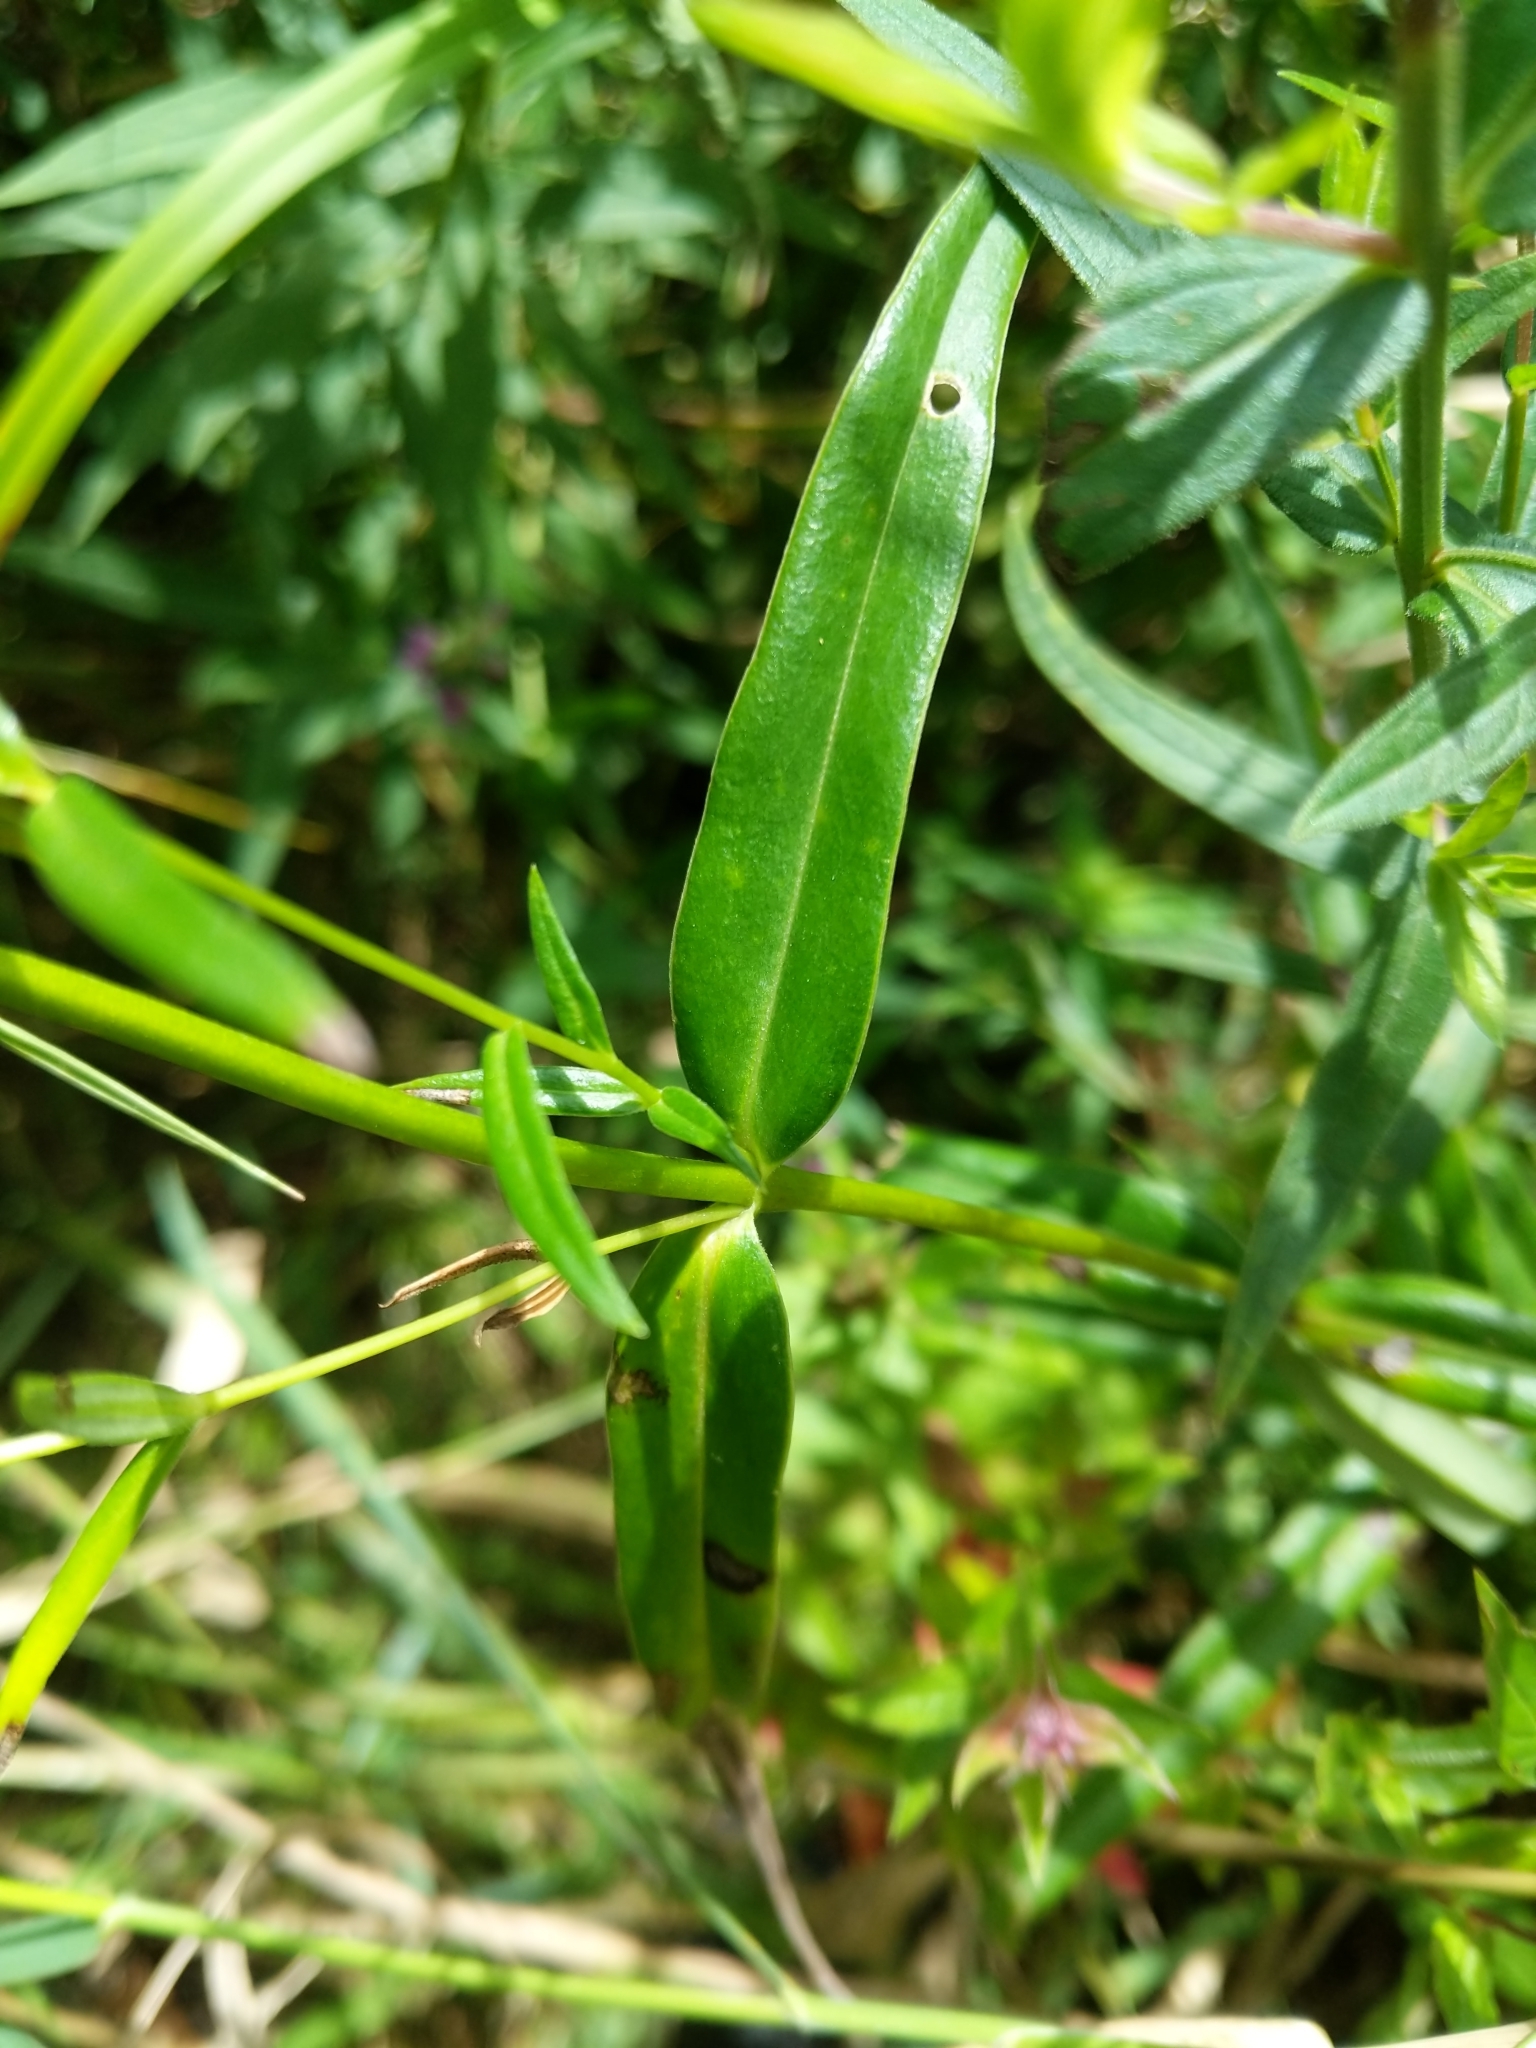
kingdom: Plantae
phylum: Tracheophyta
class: Magnoliopsida
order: Ericales
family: Polemoniaceae
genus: Phlox
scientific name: Phlox glaberrima
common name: Smooth phlox
